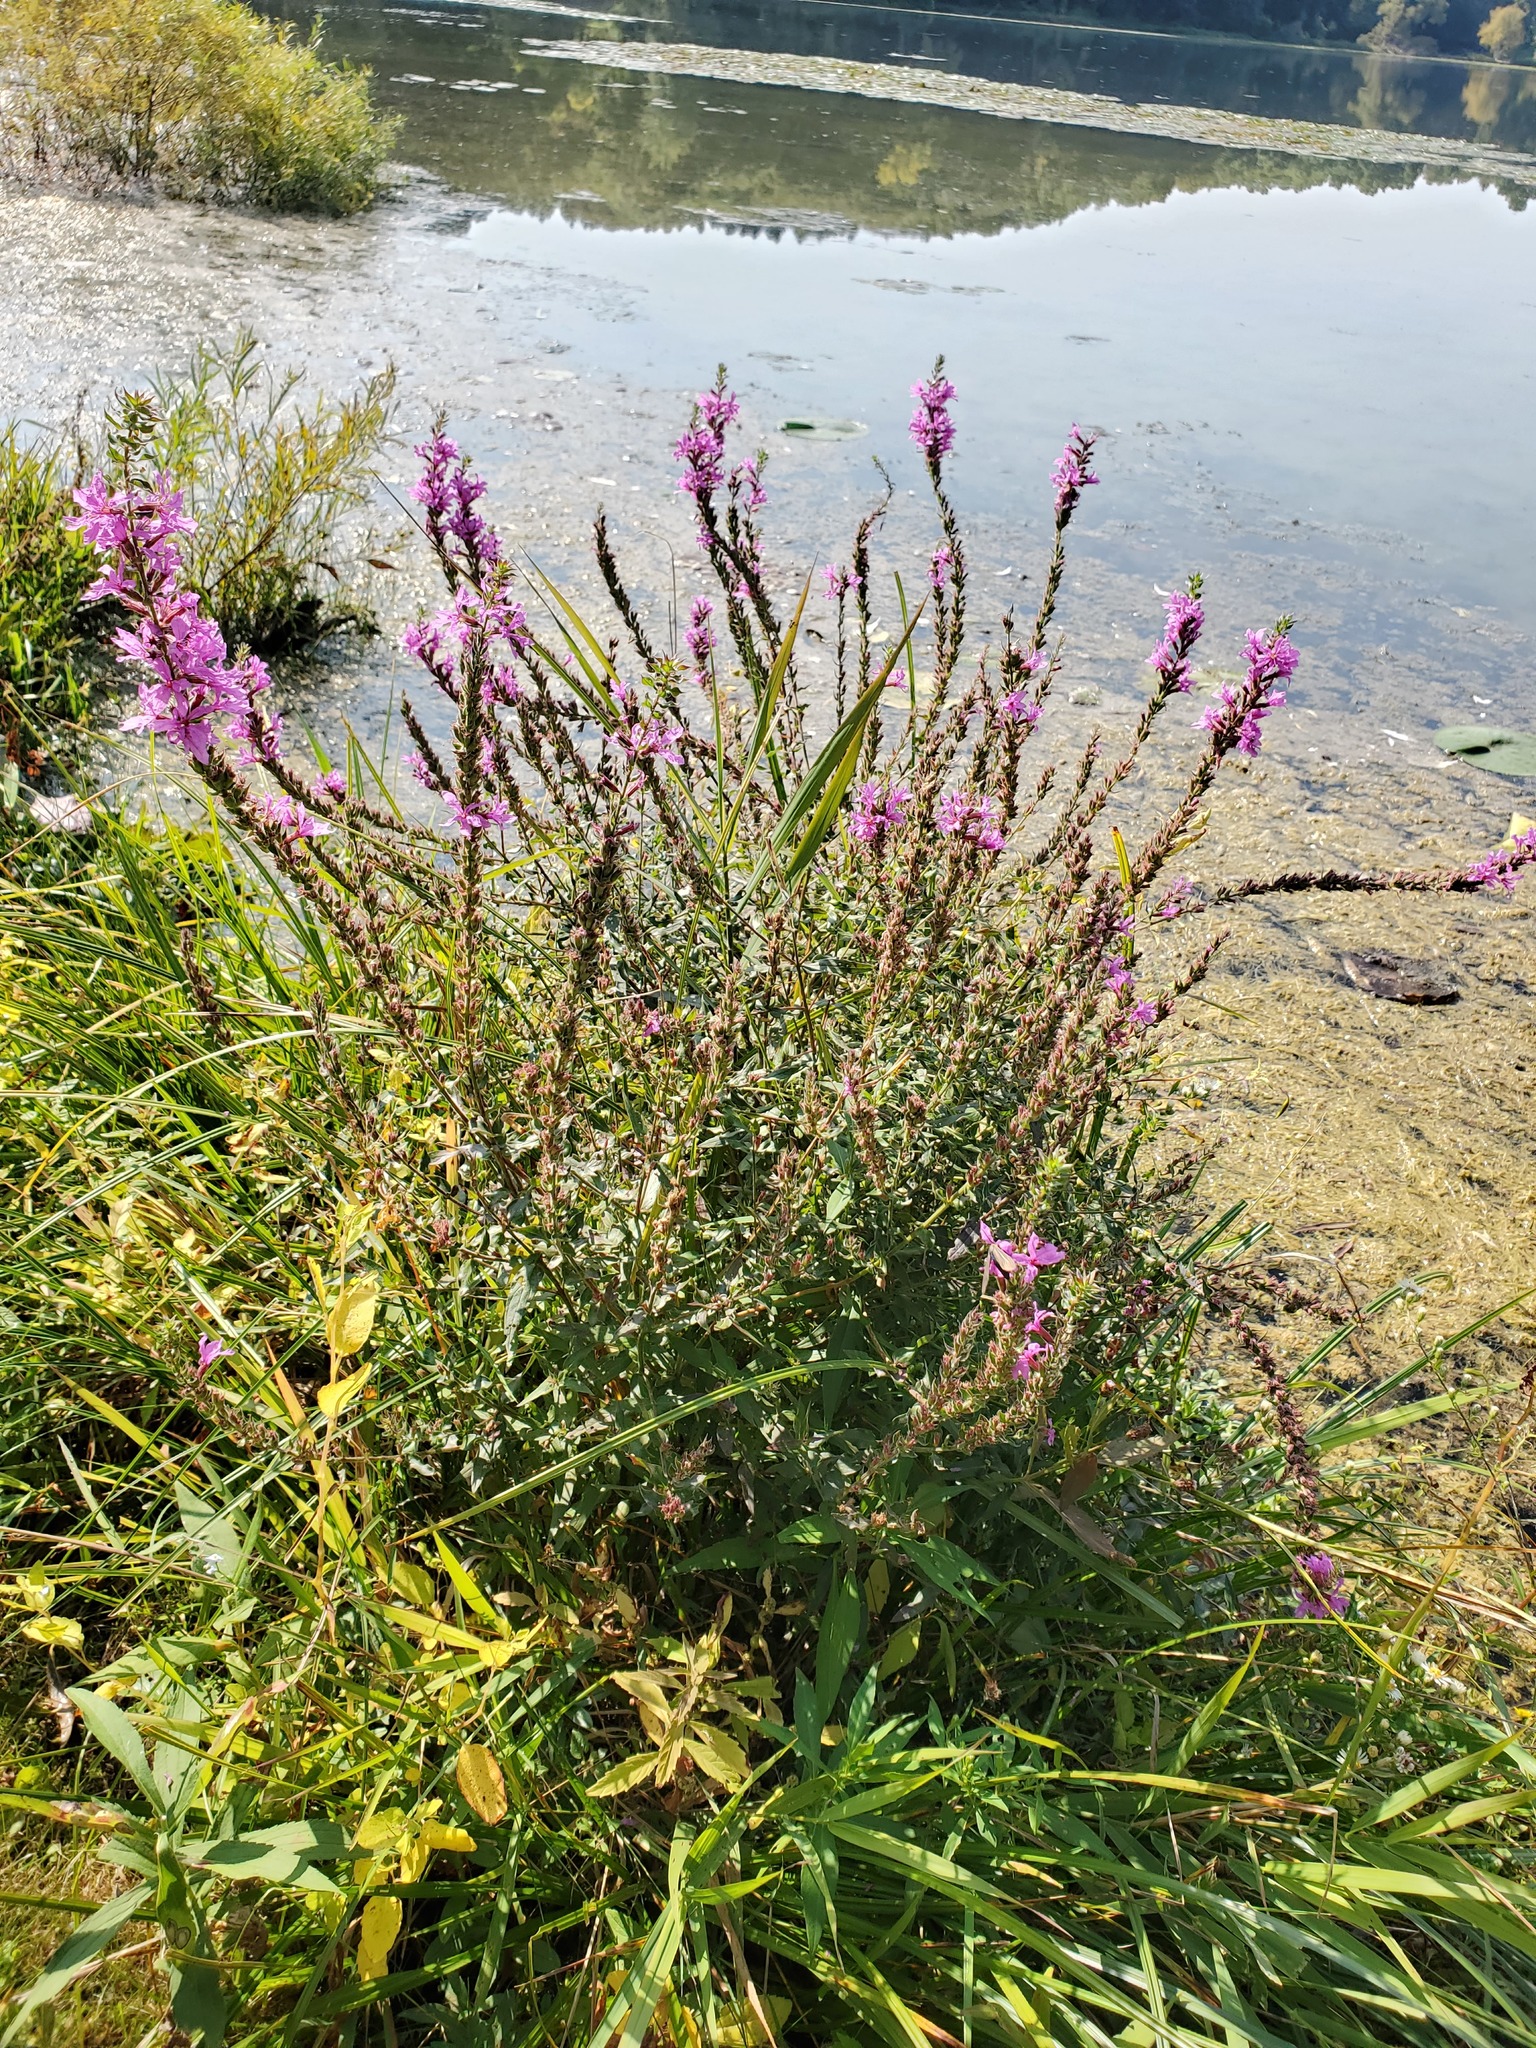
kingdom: Plantae
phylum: Tracheophyta
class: Magnoliopsida
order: Myrtales
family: Lythraceae
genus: Lythrum
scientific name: Lythrum salicaria
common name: Purple loosestrife
